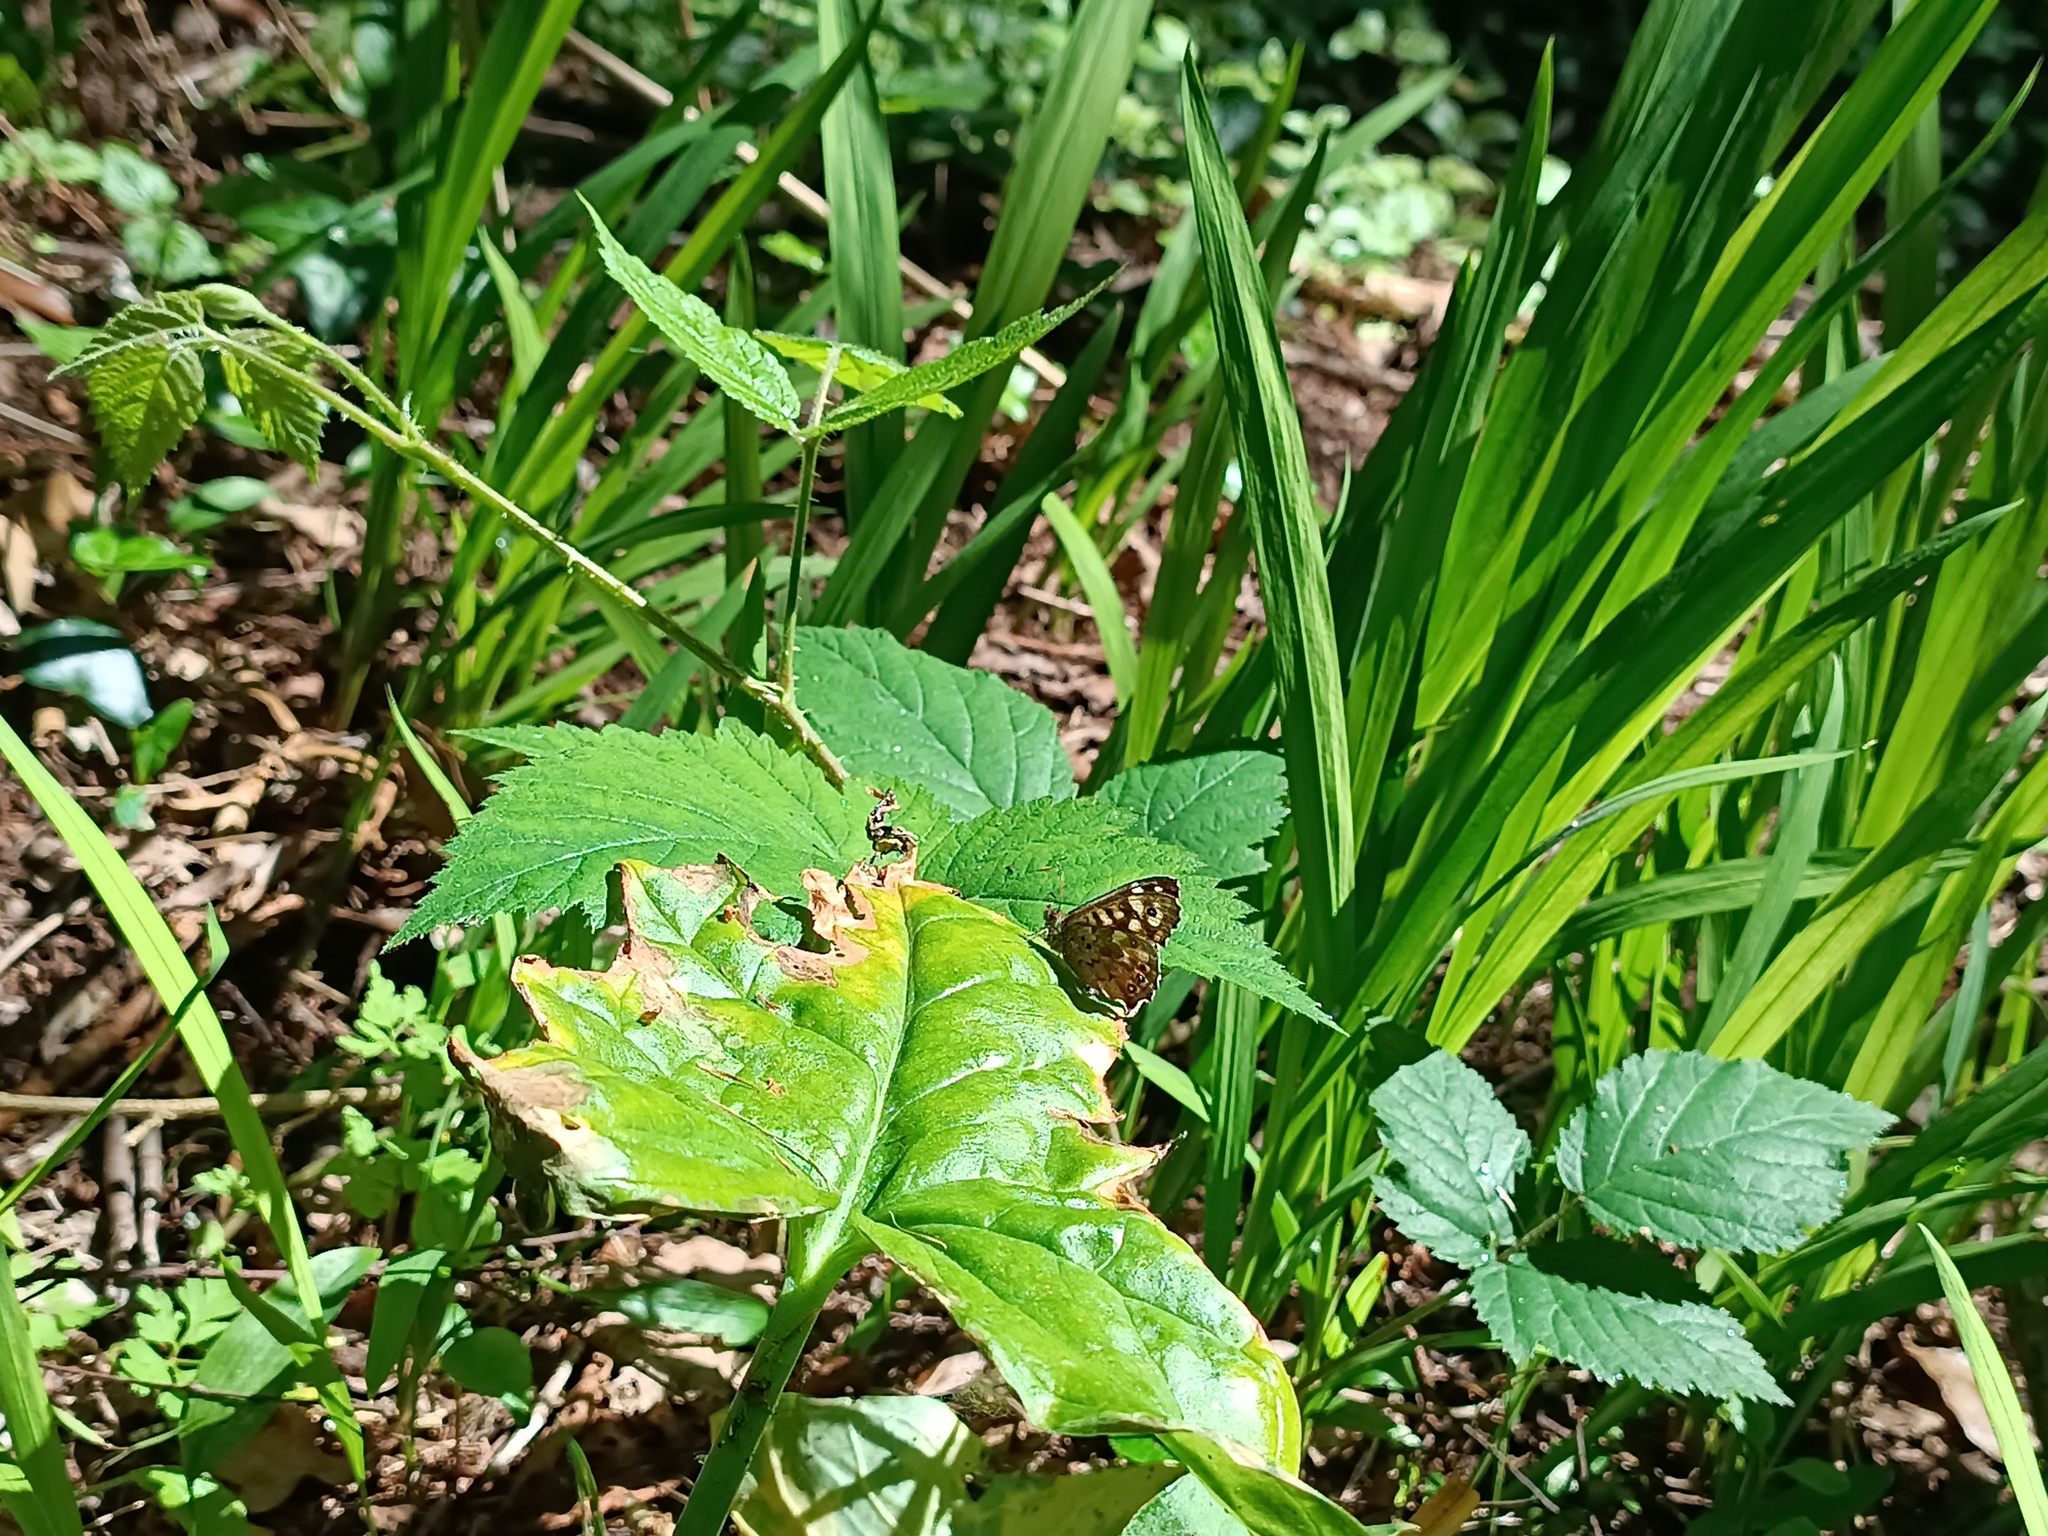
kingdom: Animalia
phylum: Arthropoda
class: Insecta
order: Lepidoptera
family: Nymphalidae
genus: Pararge
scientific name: Pararge aegeria
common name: Speckled wood
